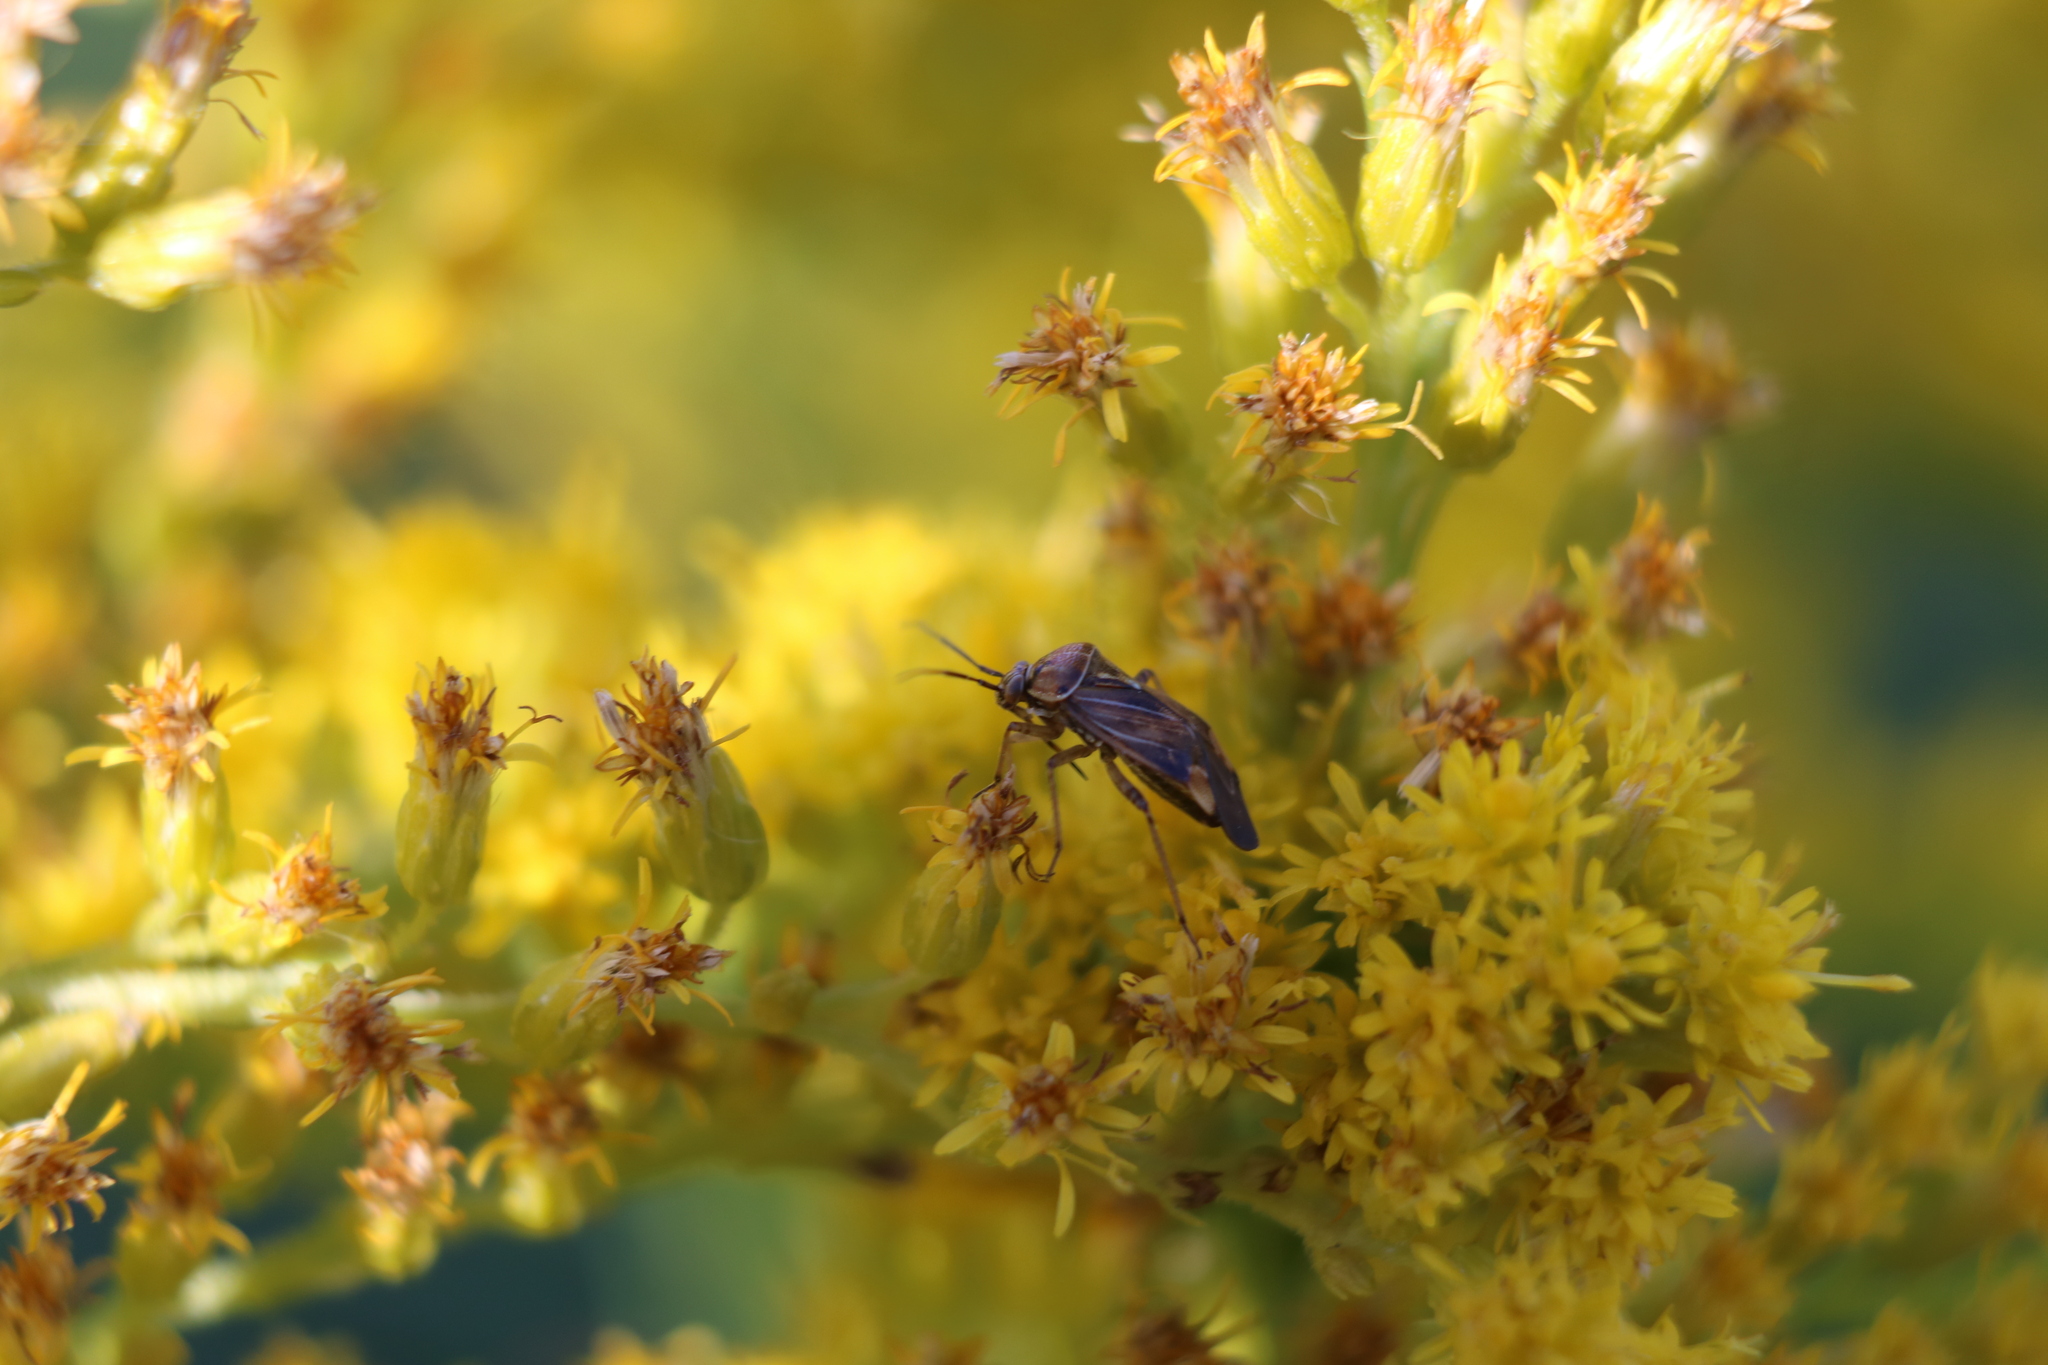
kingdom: Animalia
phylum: Arthropoda
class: Insecta
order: Hemiptera
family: Miridae
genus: Lygus
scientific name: Lygus lineolaris
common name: North american tarnished plant bug
